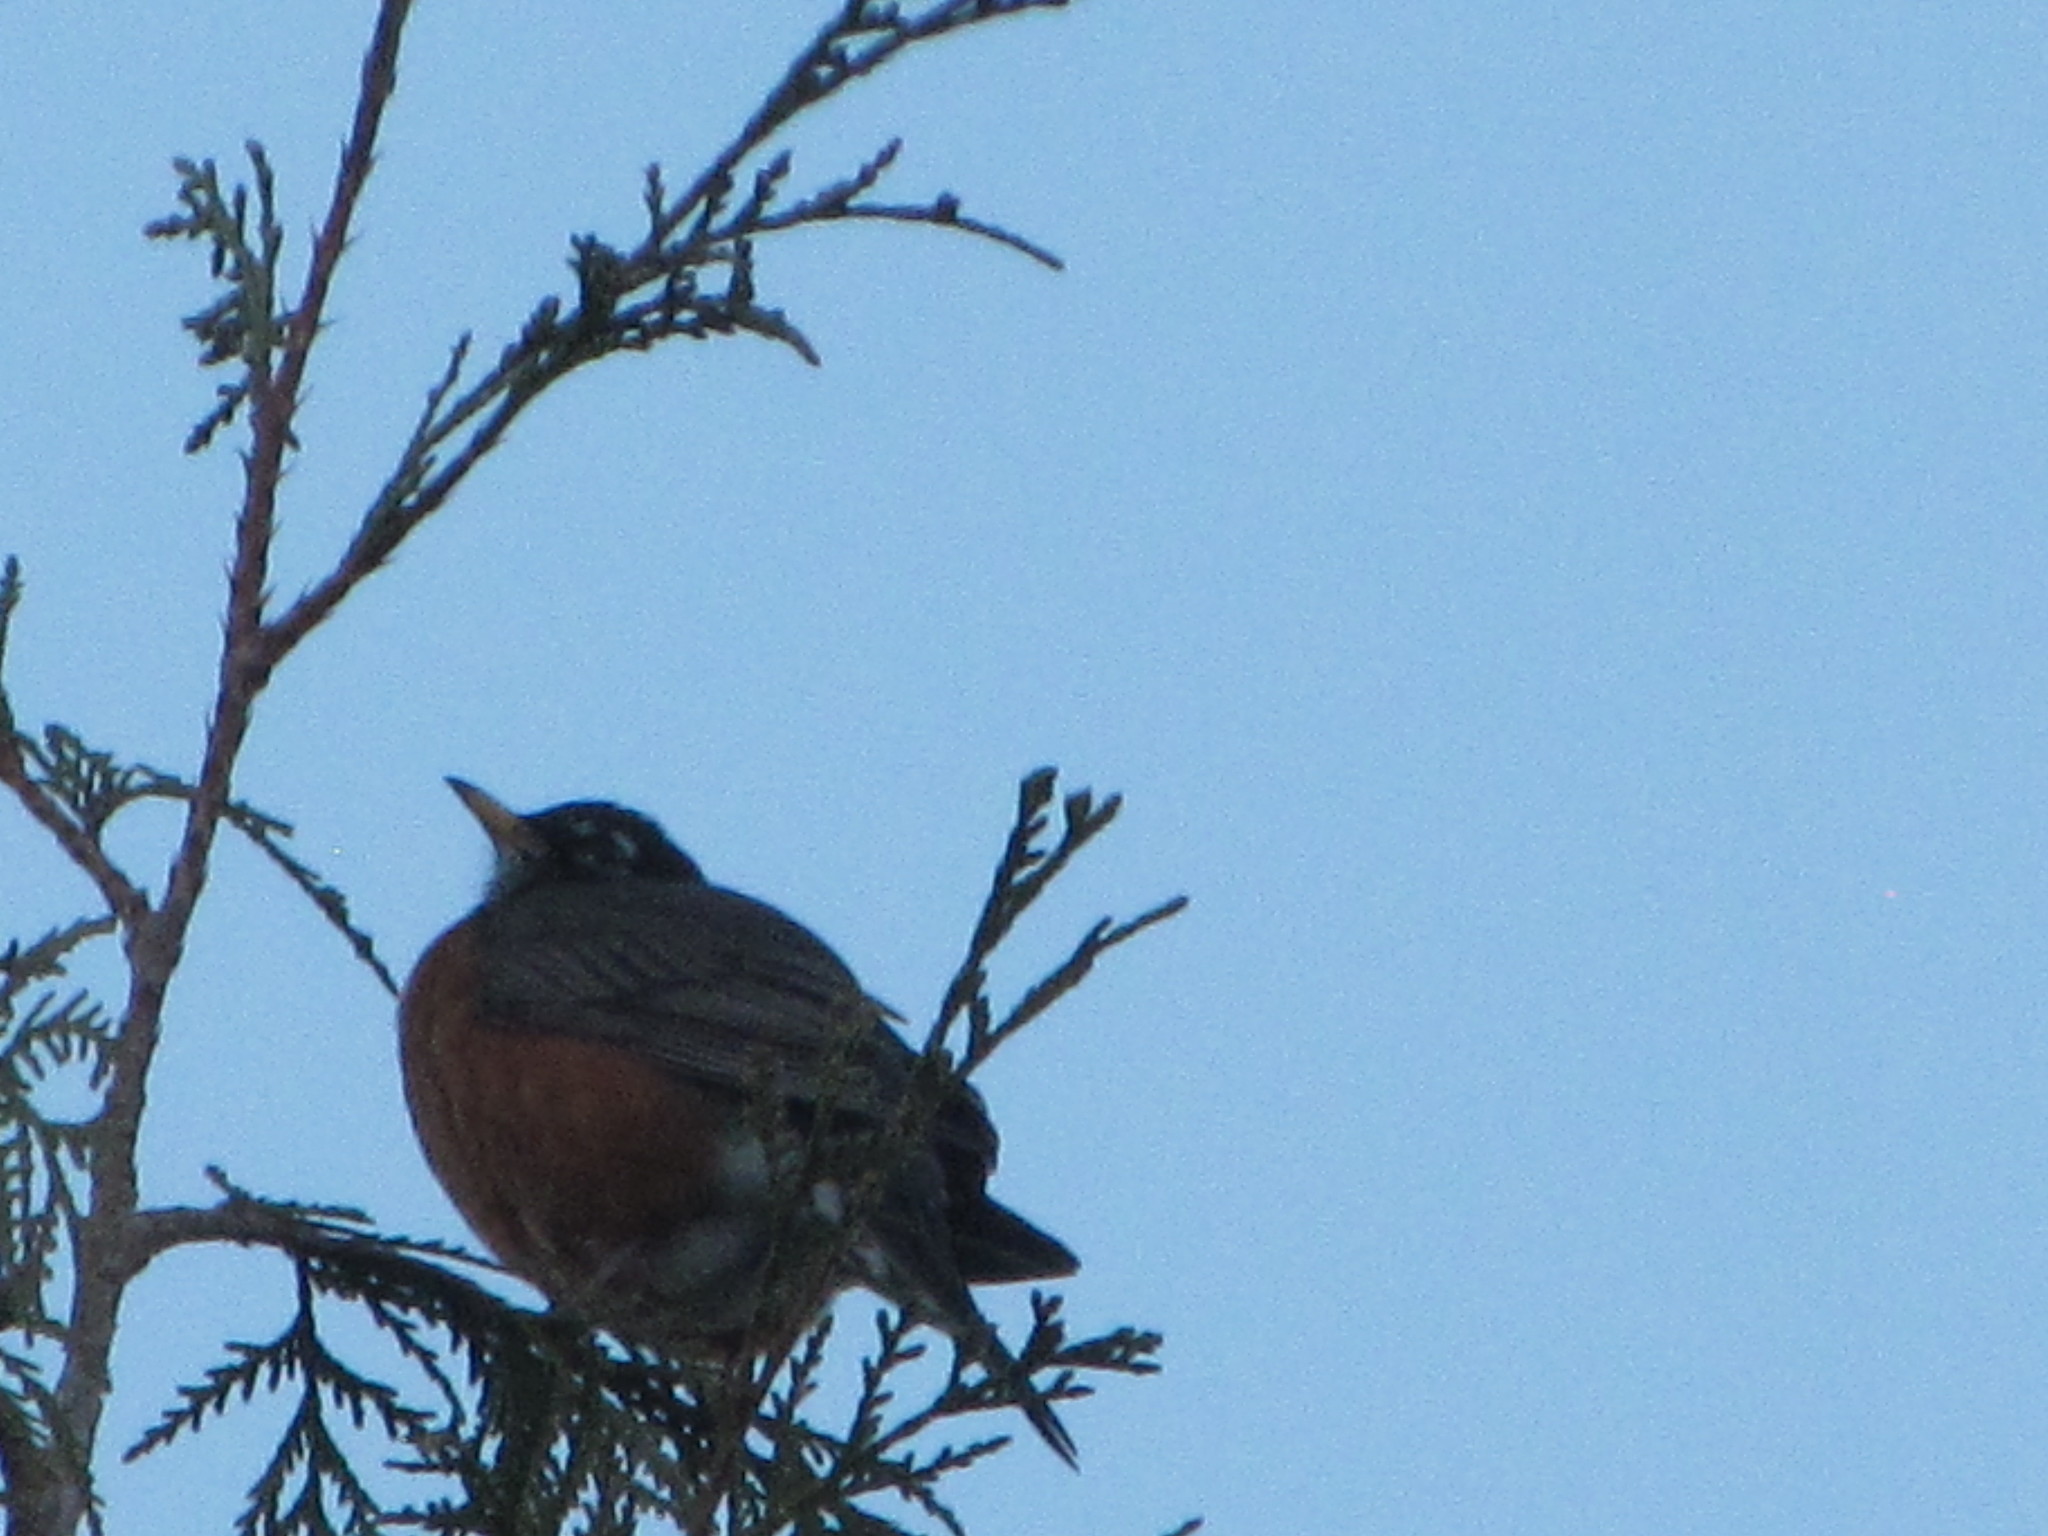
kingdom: Animalia
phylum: Chordata
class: Aves
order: Passeriformes
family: Turdidae
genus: Turdus
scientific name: Turdus migratorius
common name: American robin
